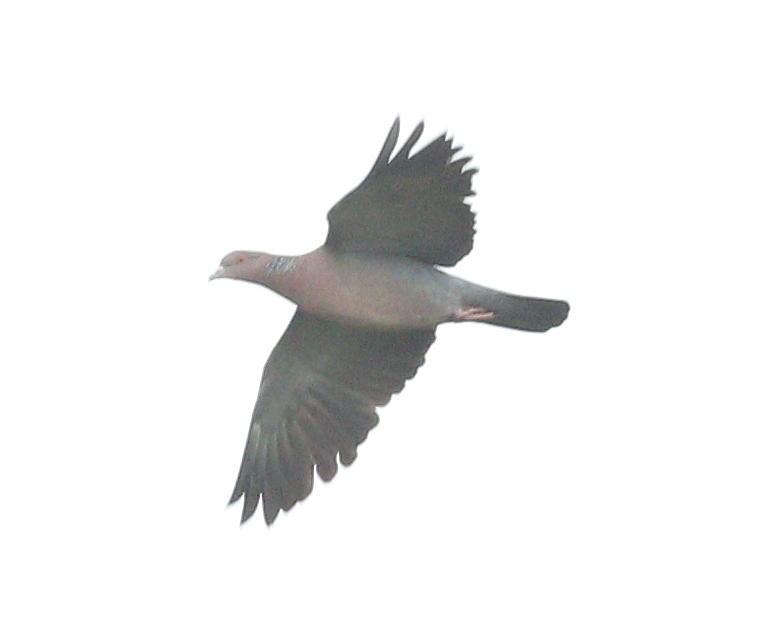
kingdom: Animalia
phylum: Chordata
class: Aves
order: Columbiformes
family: Columbidae
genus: Patagioenas
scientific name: Patagioenas picazuro
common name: Picazuro pigeon
